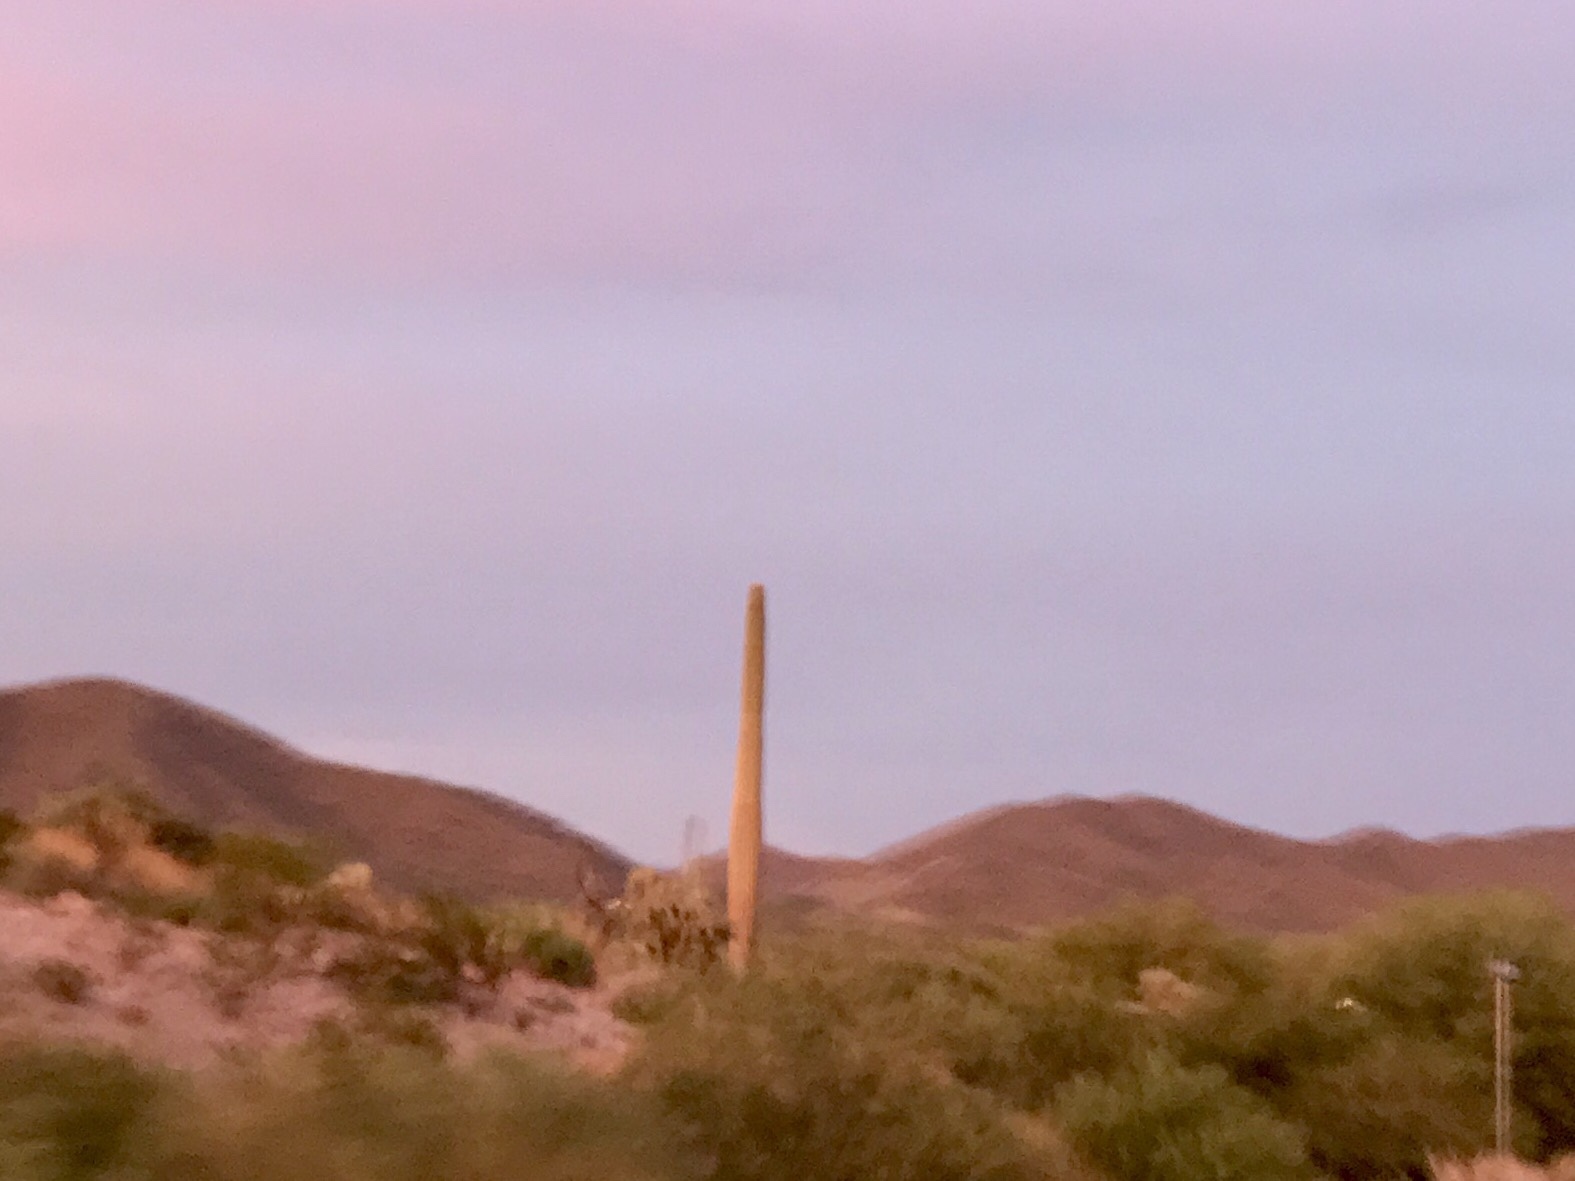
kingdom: Plantae
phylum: Tracheophyta
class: Magnoliopsida
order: Caryophyllales
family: Cactaceae
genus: Carnegiea
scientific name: Carnegiea gigantea
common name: Saguaro
